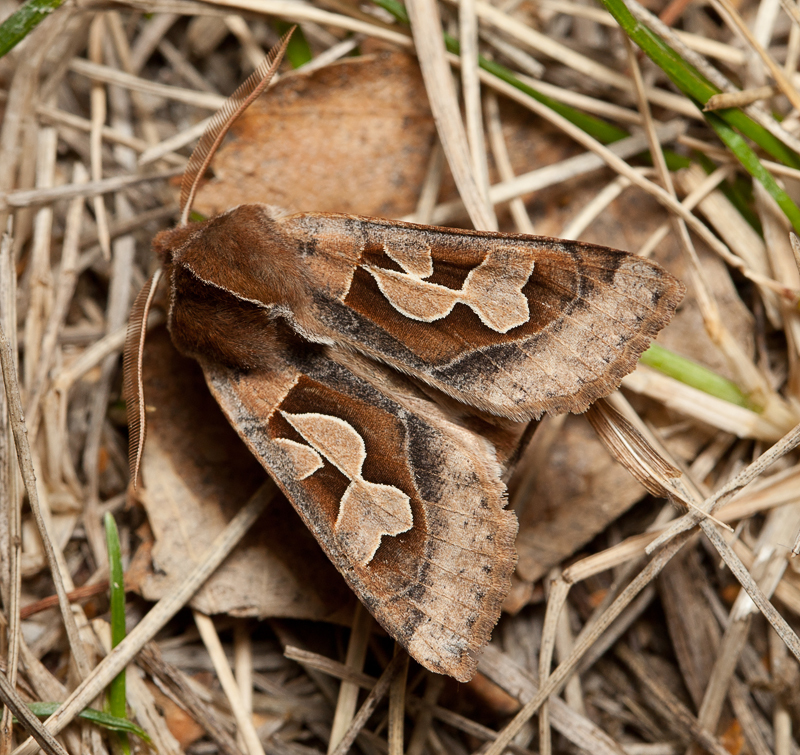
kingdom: Animalia
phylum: Arthropoda
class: Insecta
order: Lepidoptera
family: Noctuidae
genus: Perigrapha
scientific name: Perigrapha circumducta
